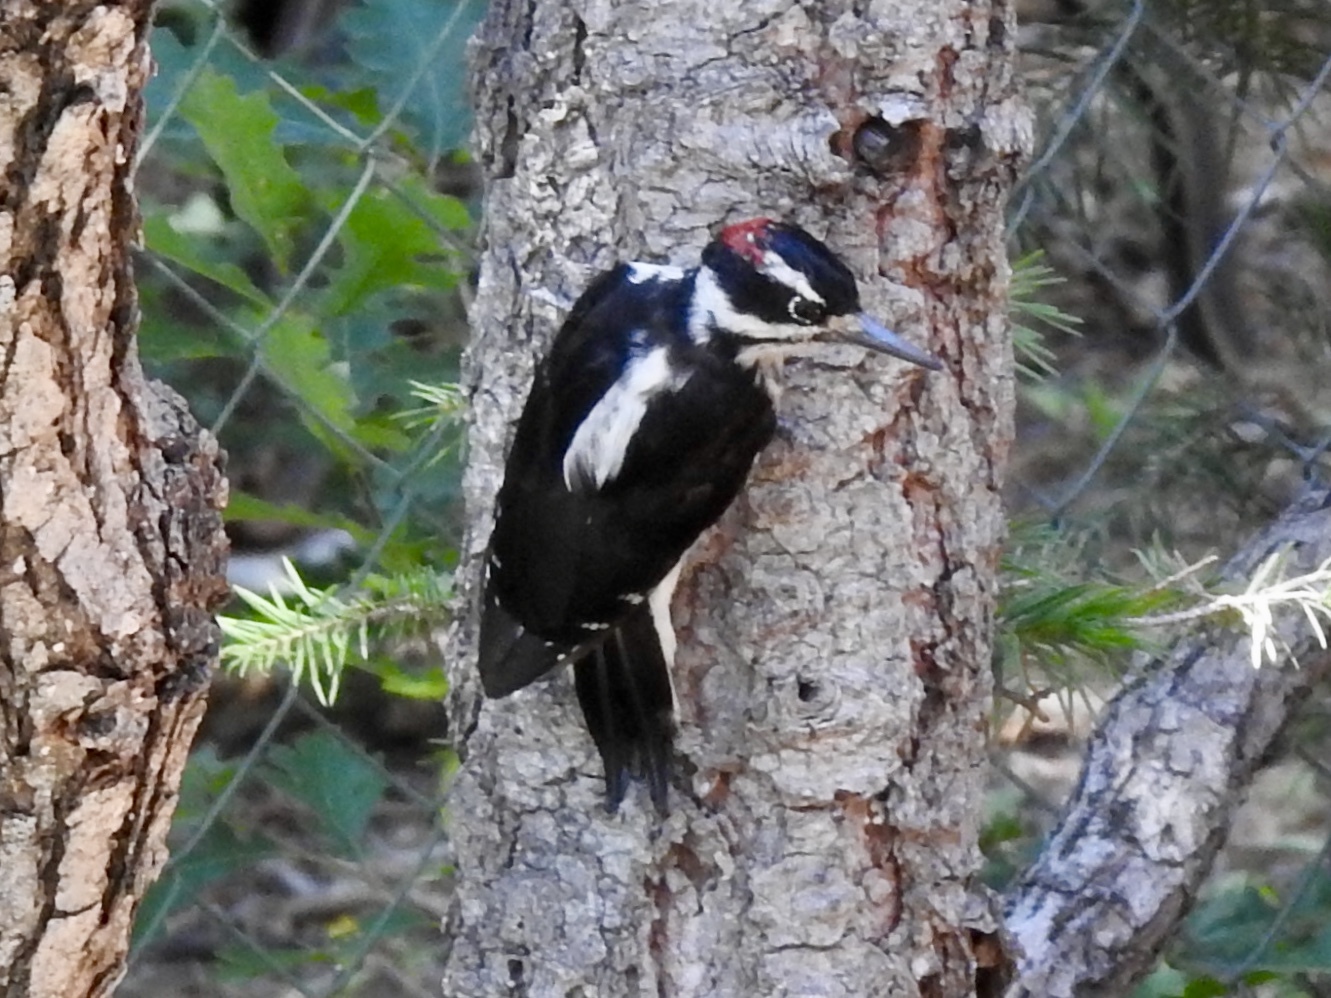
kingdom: Animalia
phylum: Chordata
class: Aves
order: Piciformes
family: Picidae
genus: Leuconotopicus
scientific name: Leuconotopicus villosus
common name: Hairy woodpecker
